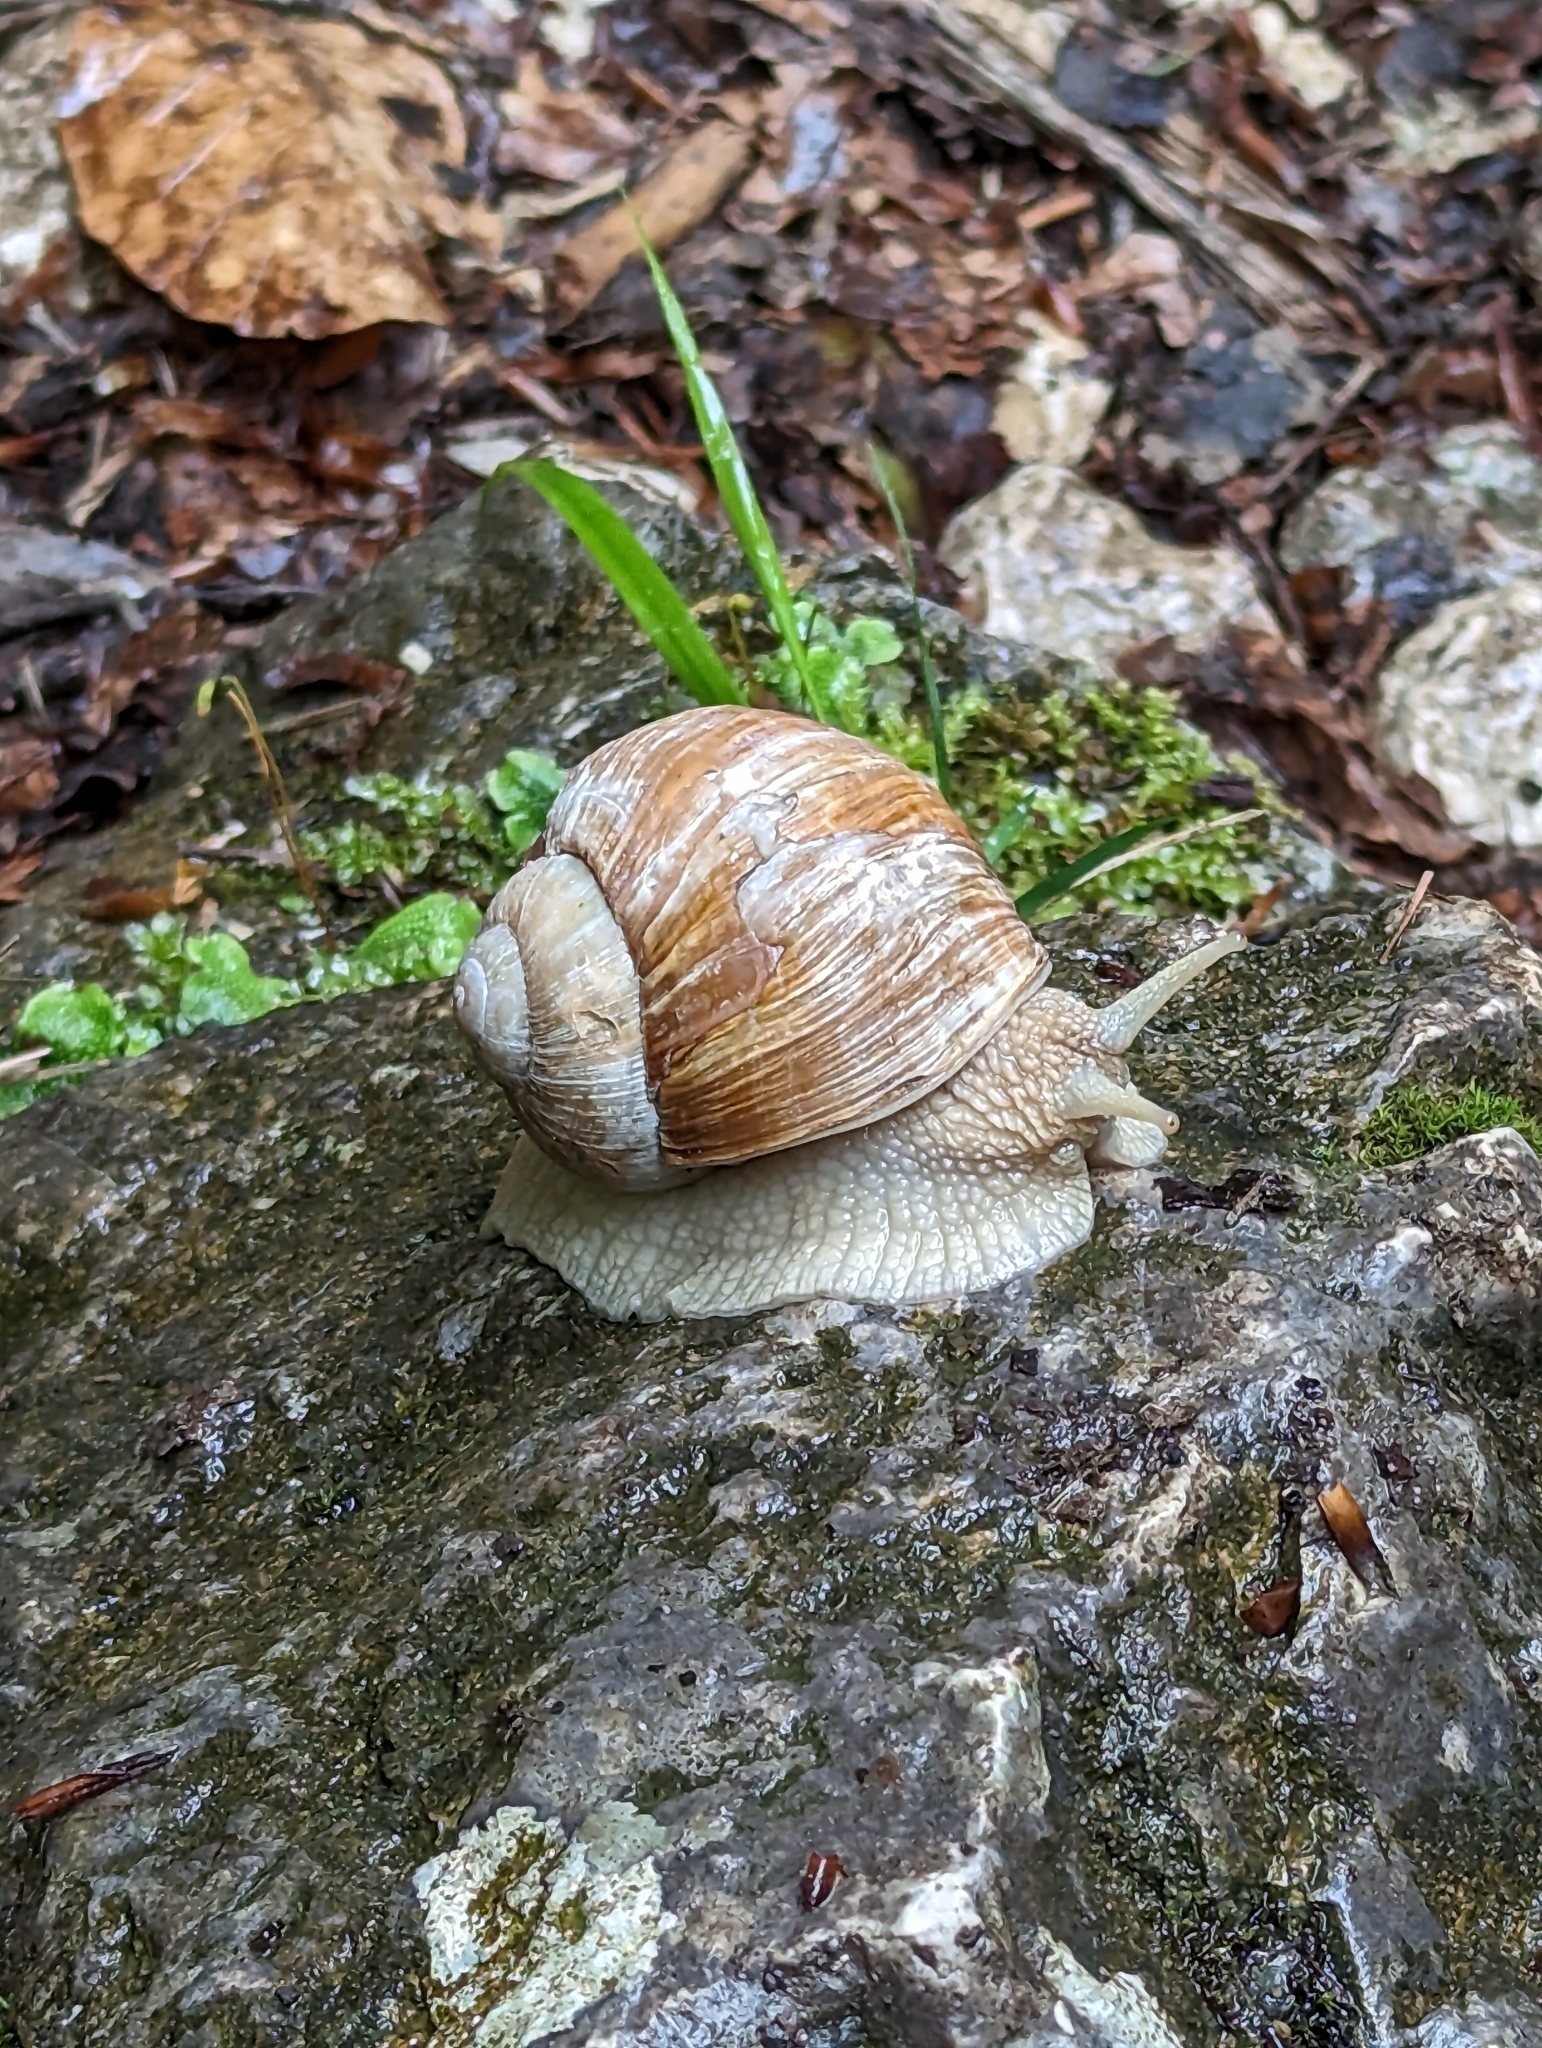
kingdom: Animalia
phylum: Mollusca
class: Gastropoda
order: Stylommatophora
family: Helicidae
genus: Helix
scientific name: Helix pomatia
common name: Roman snail
